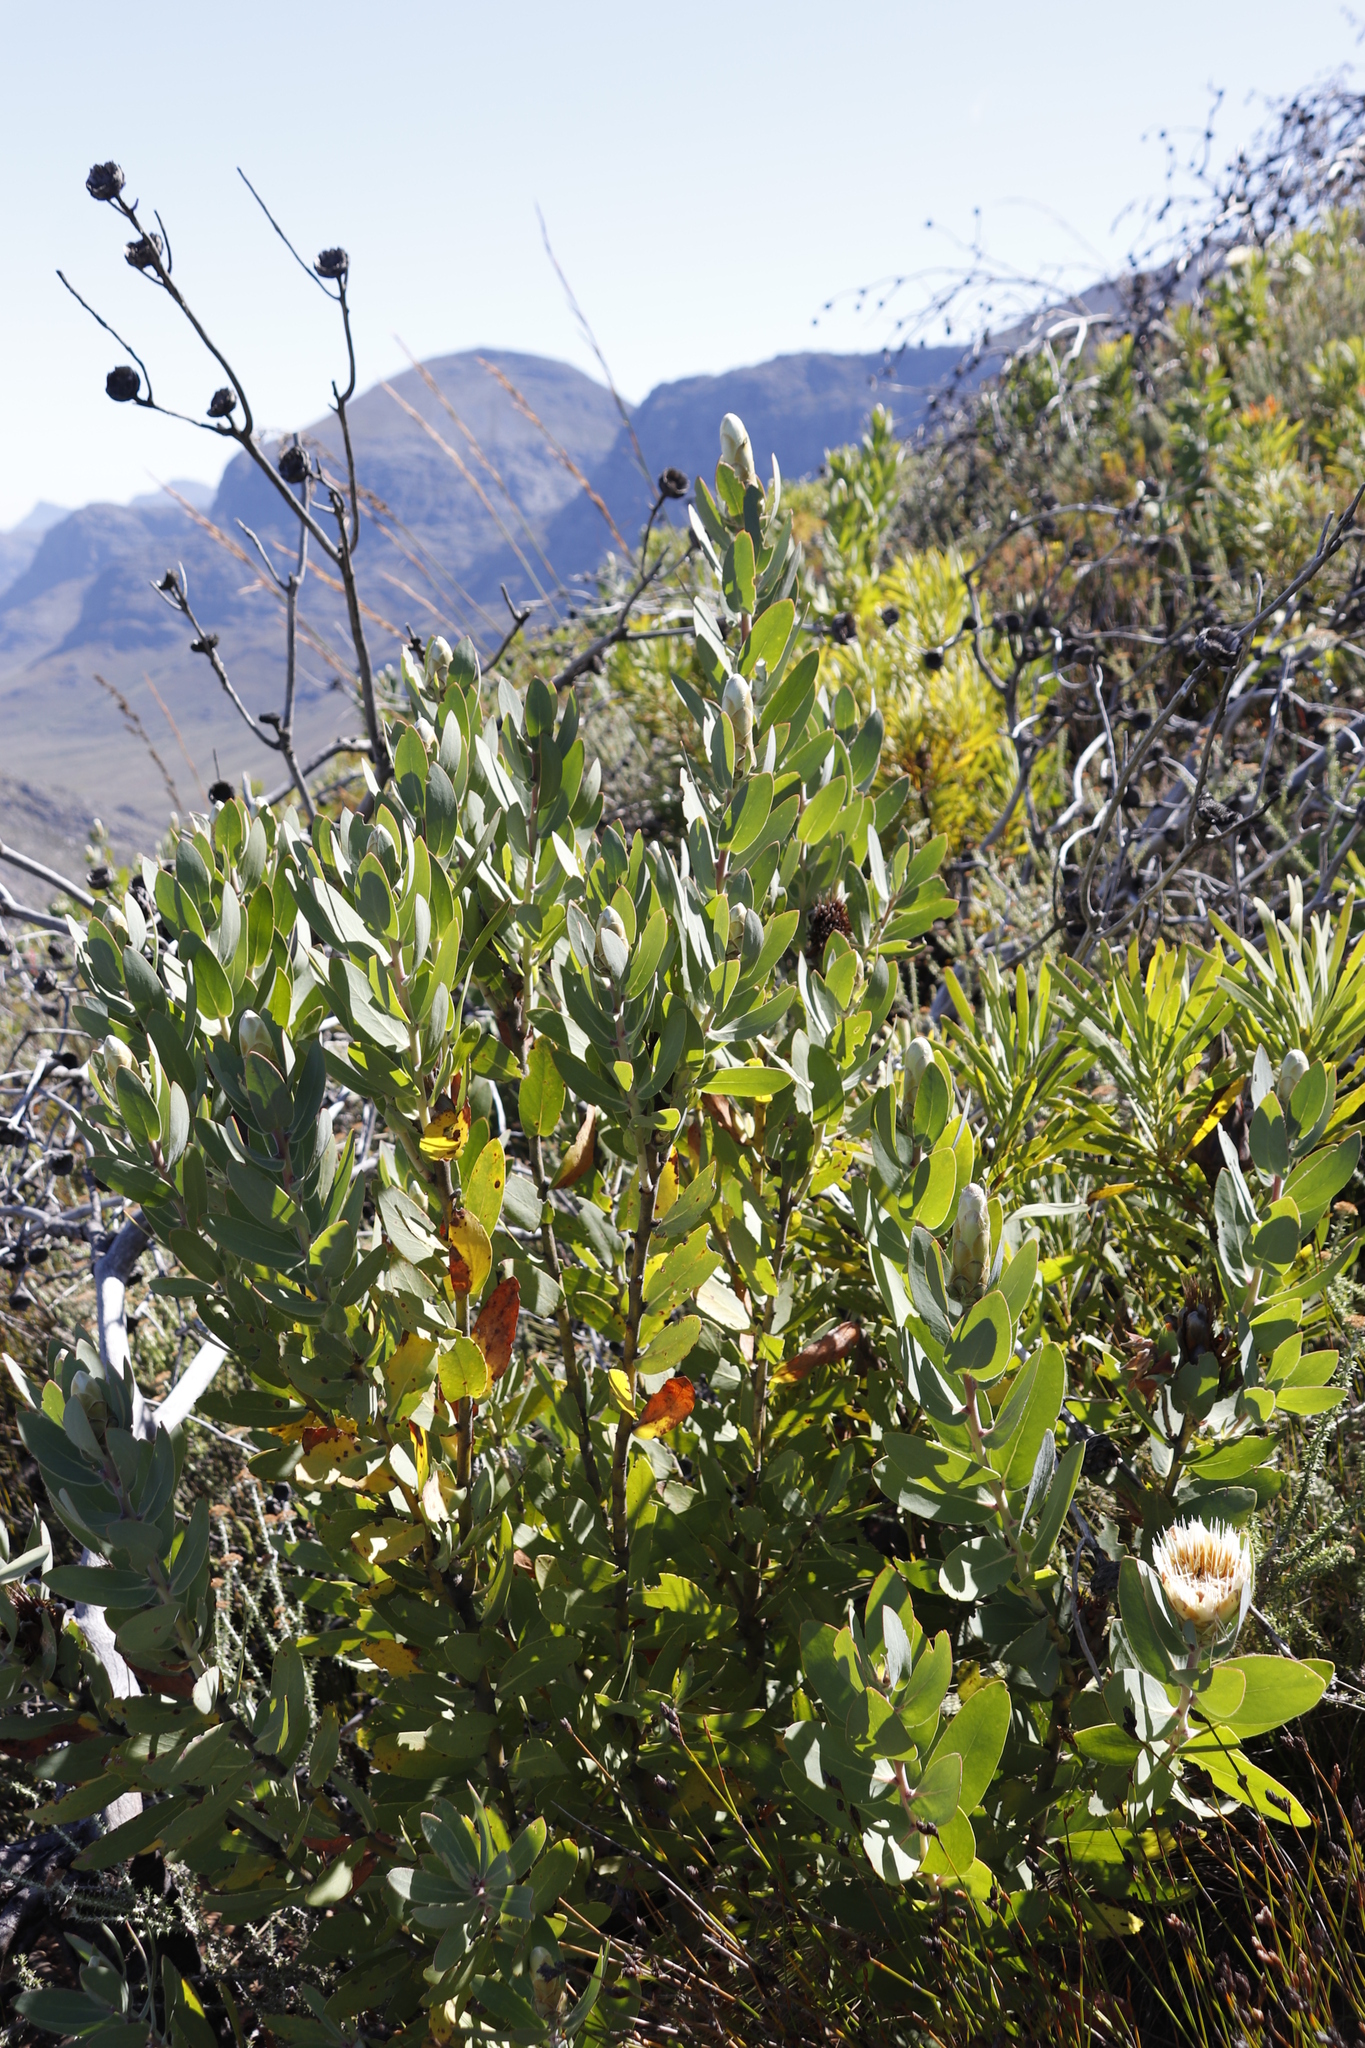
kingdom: Plantae
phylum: Tracheophyta
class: Magnoliopsida
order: Proteales
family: Proteaceae
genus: Protea
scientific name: Protea lacticolor
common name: Hottentot sugarbush
